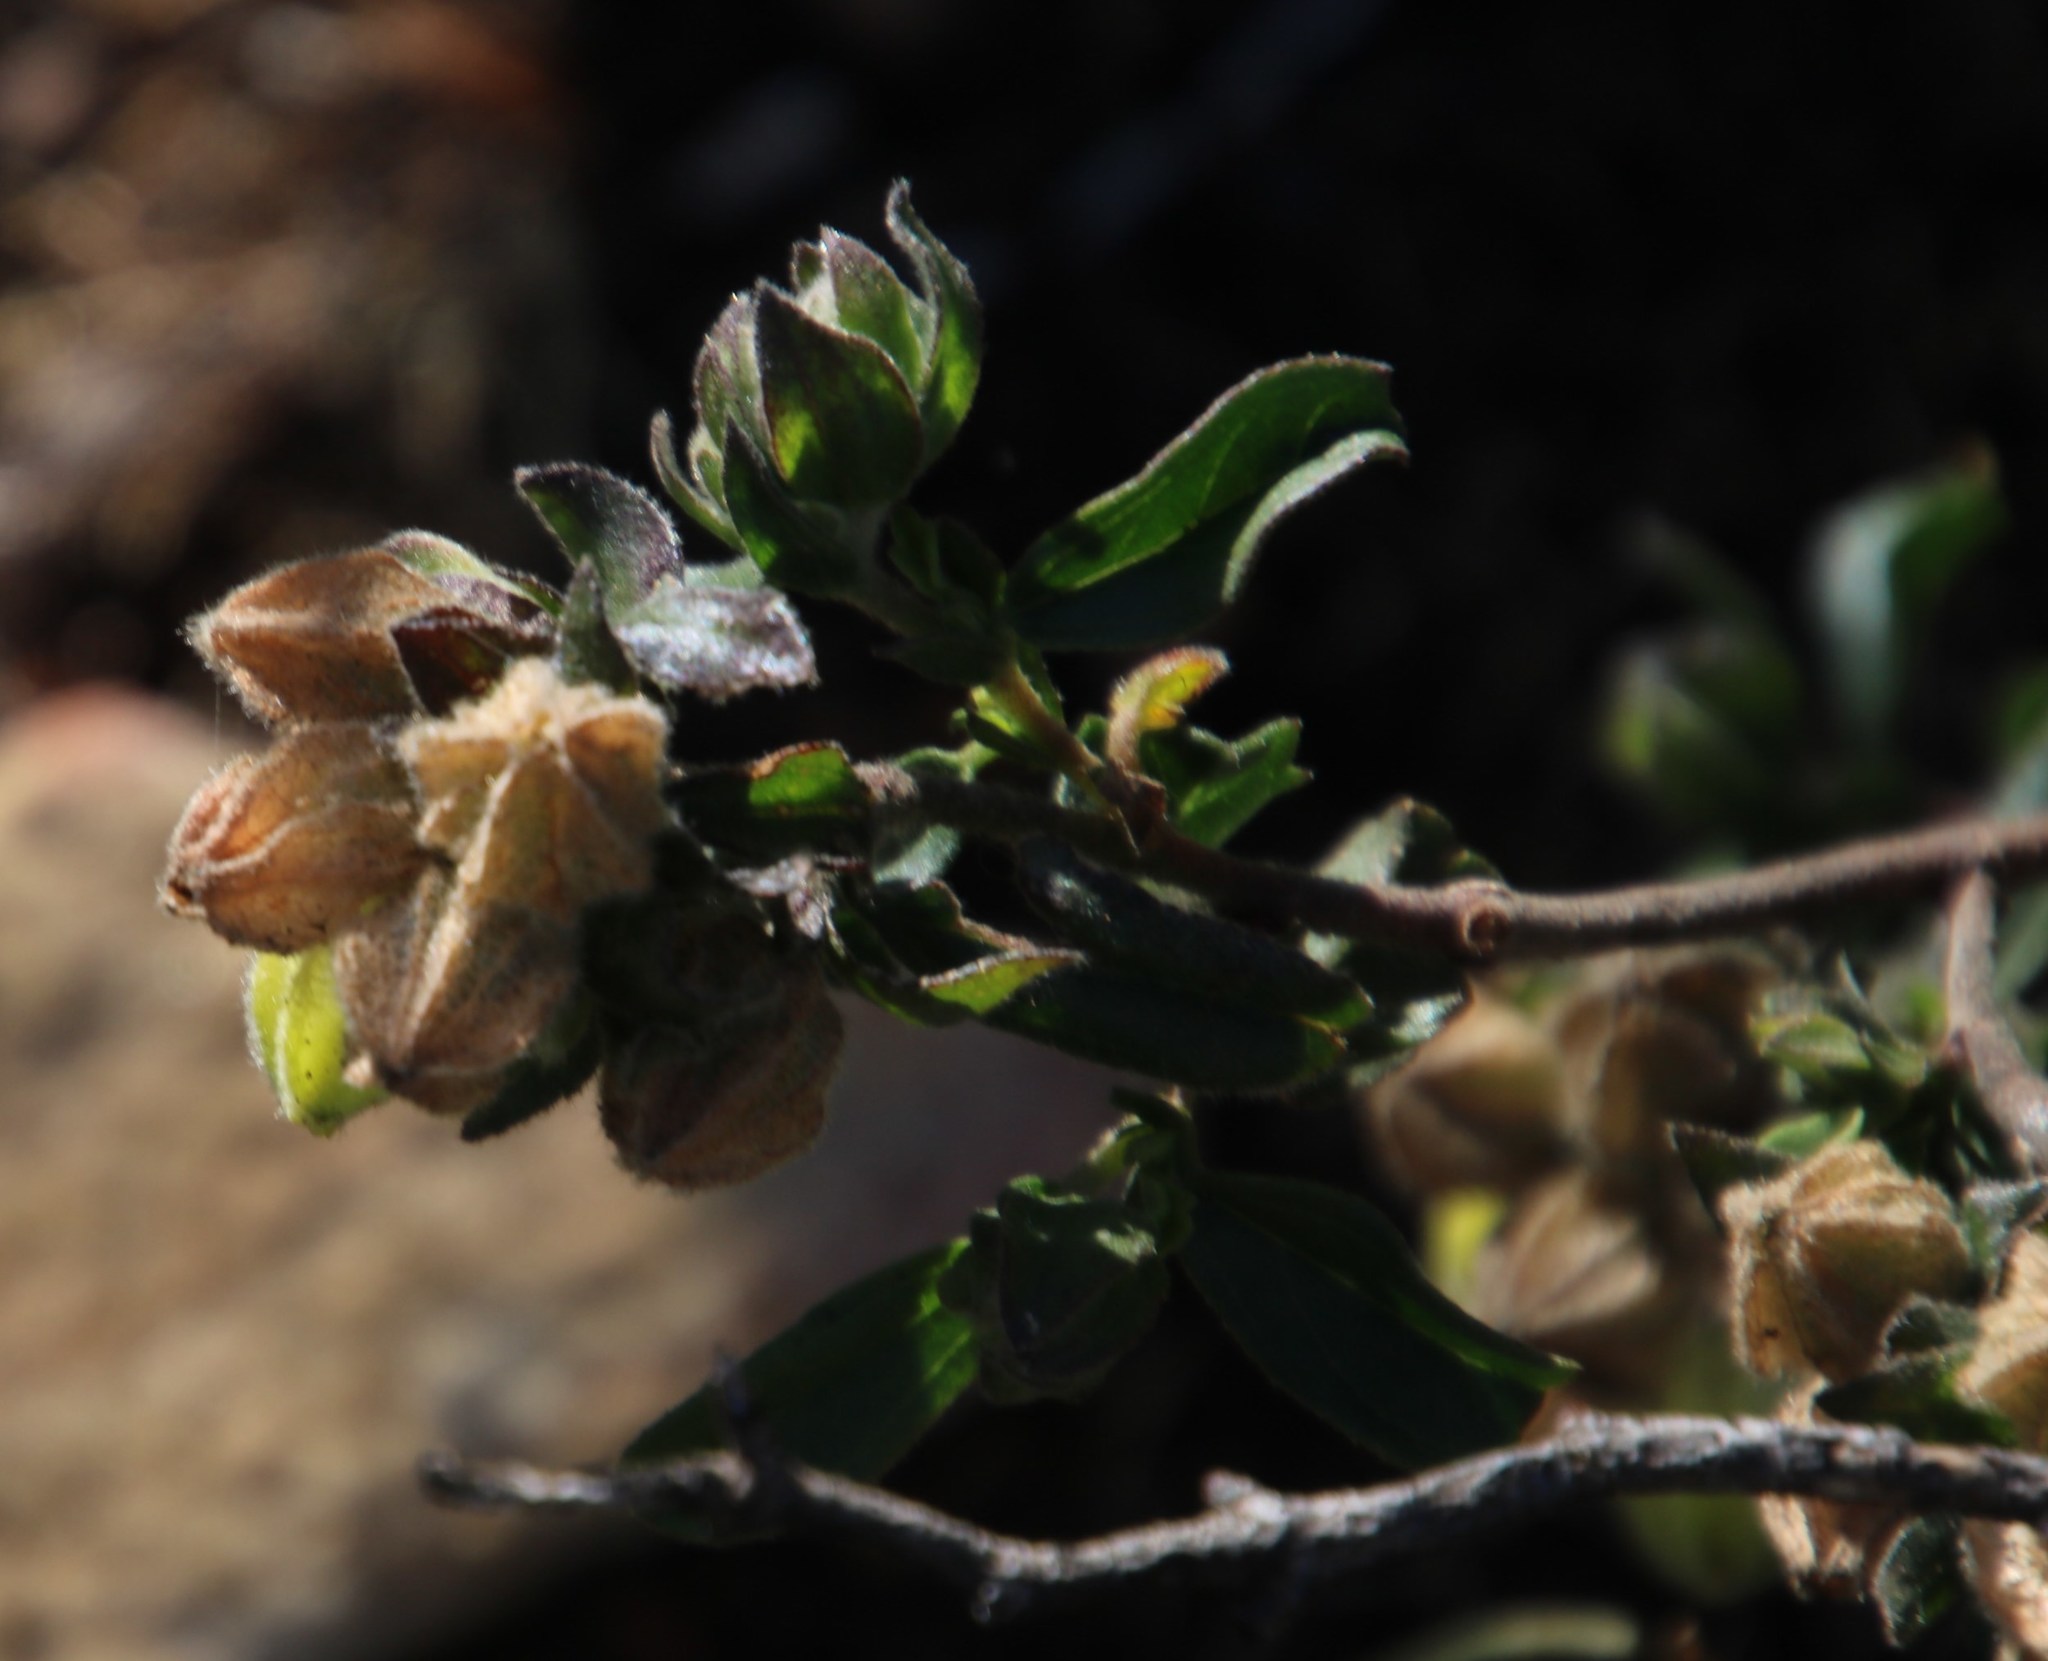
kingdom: Plantae
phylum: Tracheophyta
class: Magnoliopsida
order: Malvales
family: Malvaceae
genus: Hermannia
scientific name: Hermannia hyssopifolia
